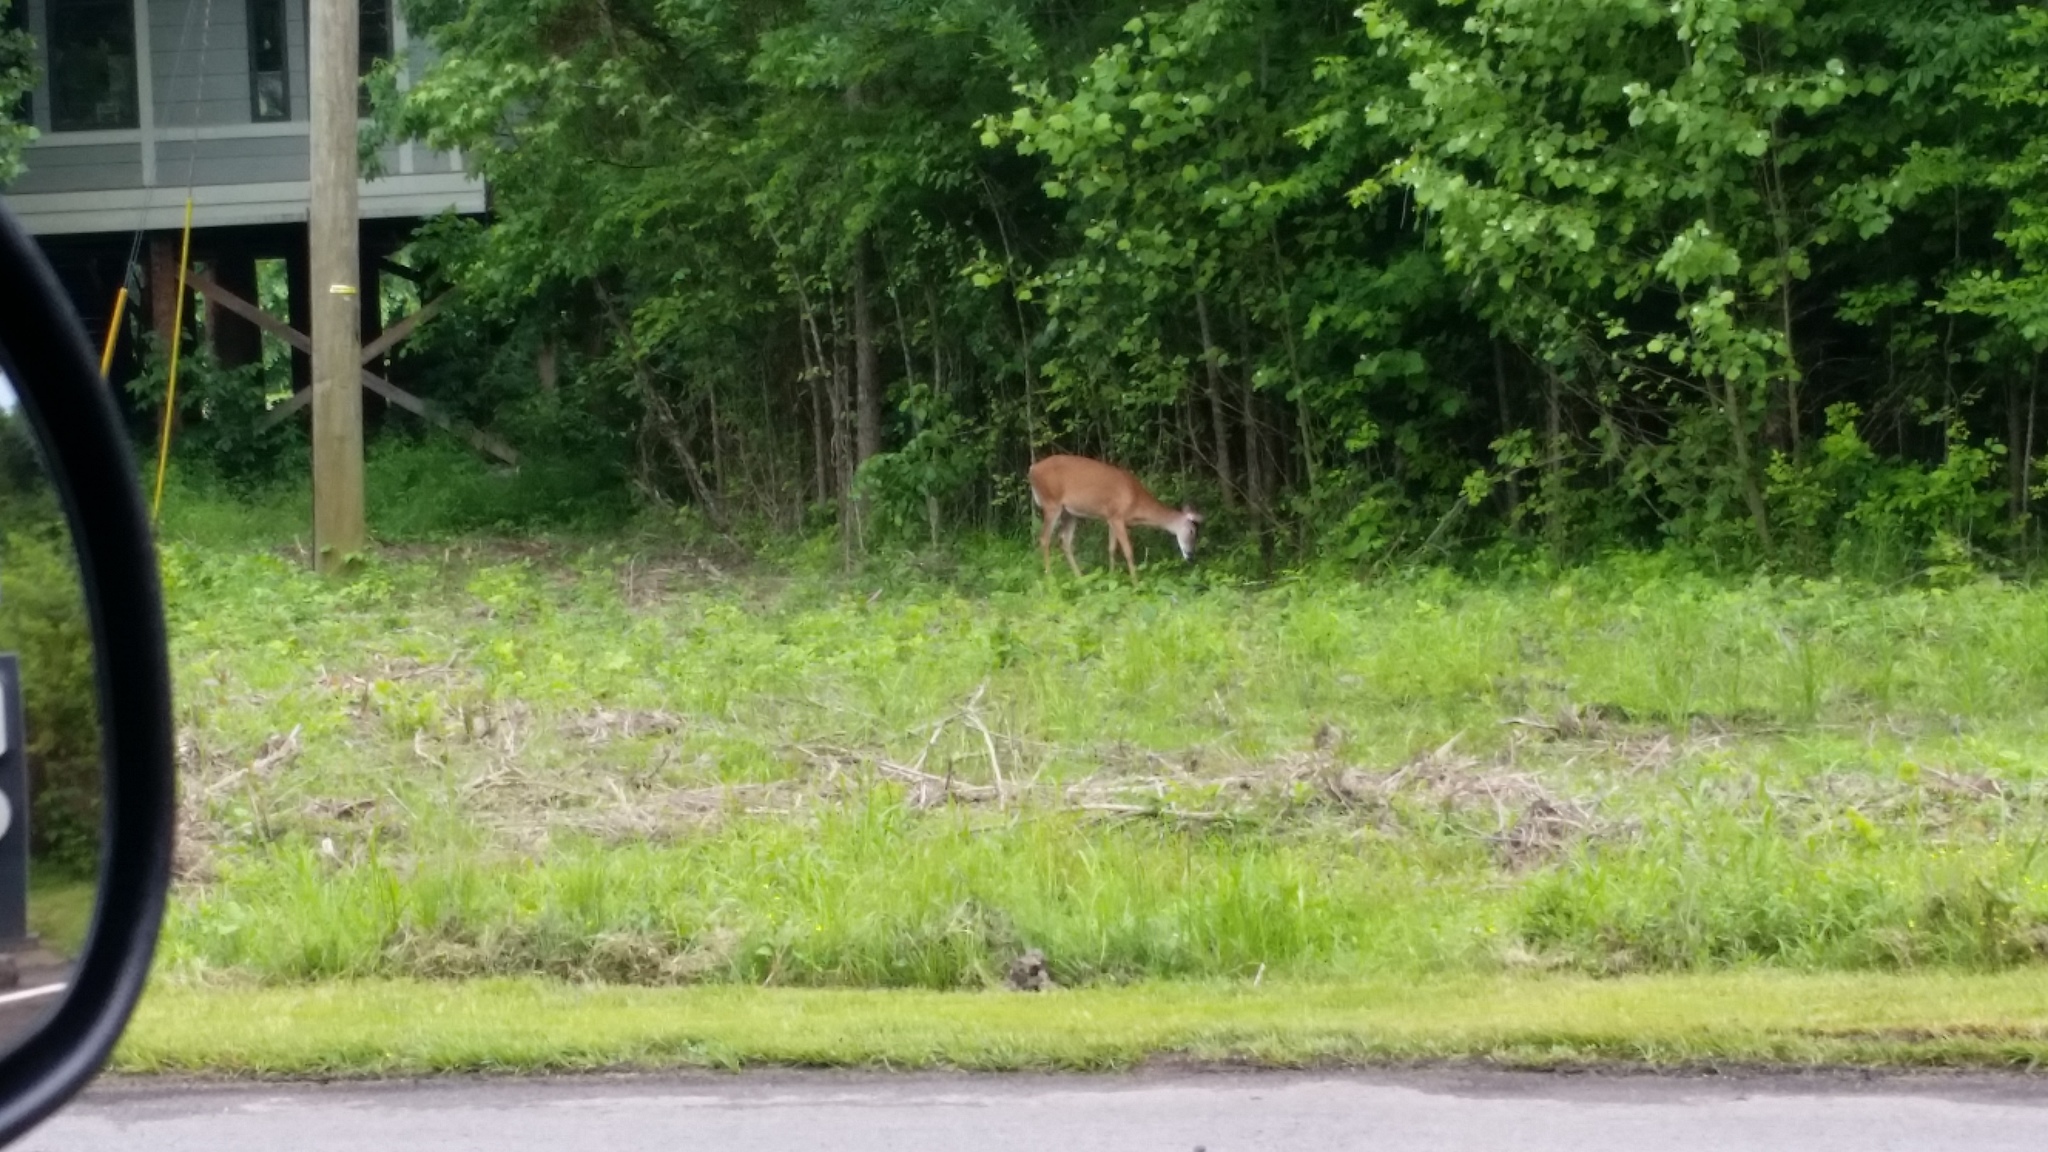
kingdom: Animalia
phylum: Chordata
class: Mammalia
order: Artiodactyla
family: Cervidae
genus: Odocoileus
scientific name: Odocoileus virginianus
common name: White-tailed deer
